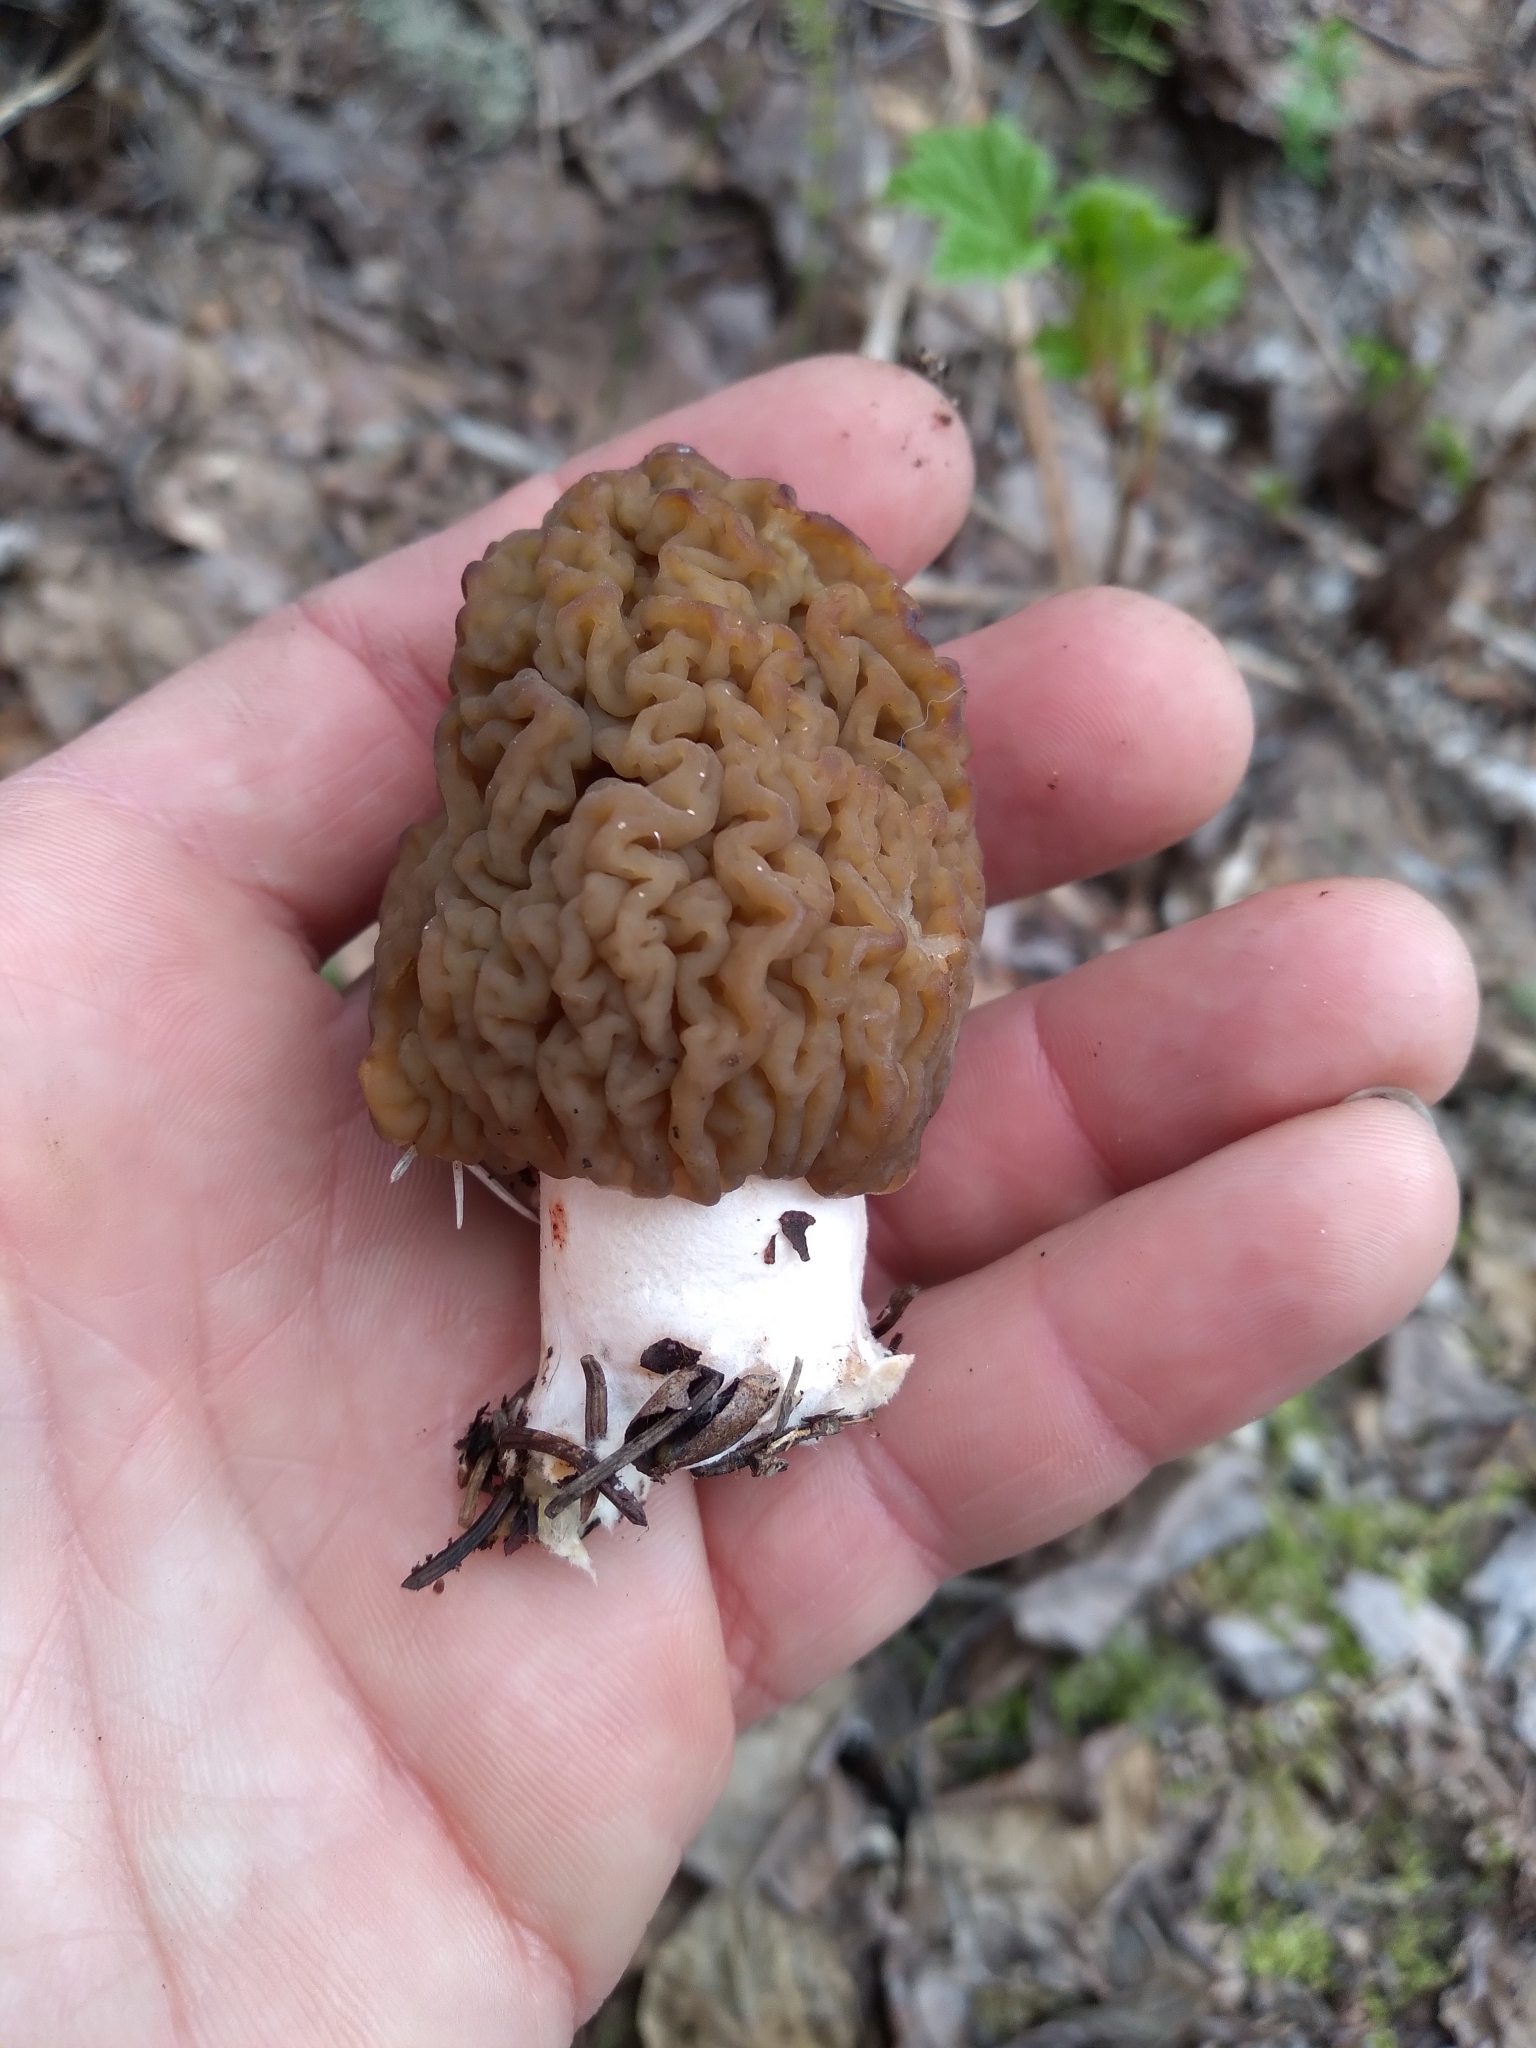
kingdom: Fungi
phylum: Ascomycota
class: Pezizomycetes
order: Pezizales
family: Morchellaceae
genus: Verpa
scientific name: Verpa bohemica
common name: Wrinkled thimble morel
